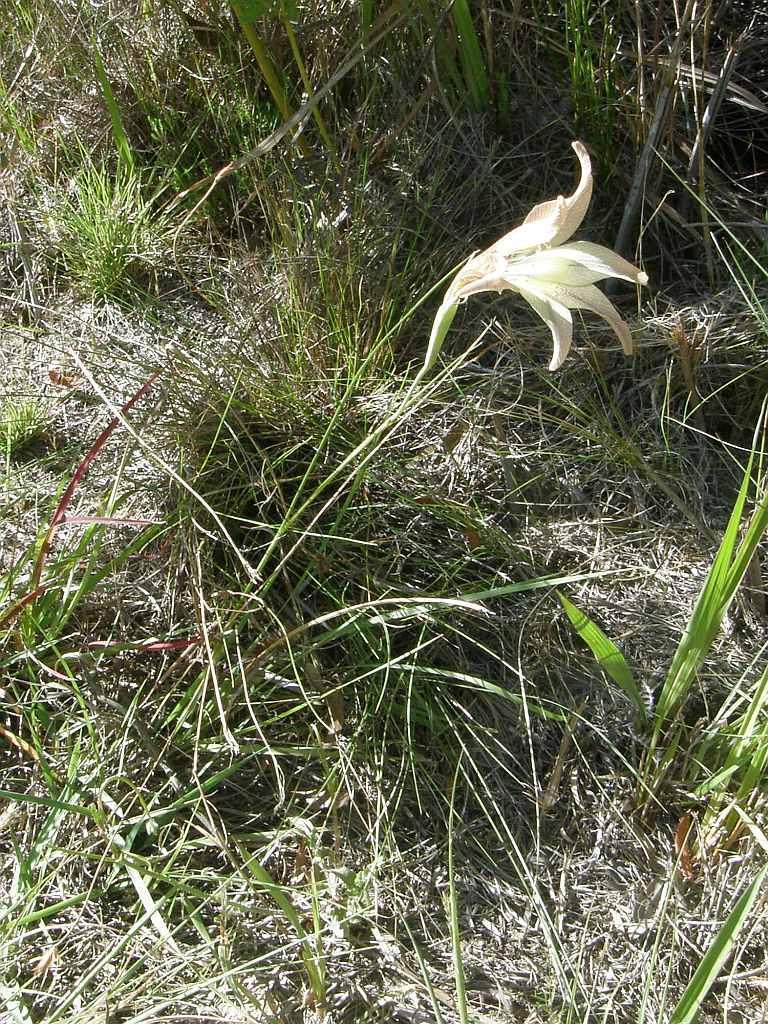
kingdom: Plantae
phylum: Tracheophyta
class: Liliopsida
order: Asparagales
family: Iridaceae
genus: Gladiolus
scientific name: Gladiolus liliaceus
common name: Large brown afrikaner
